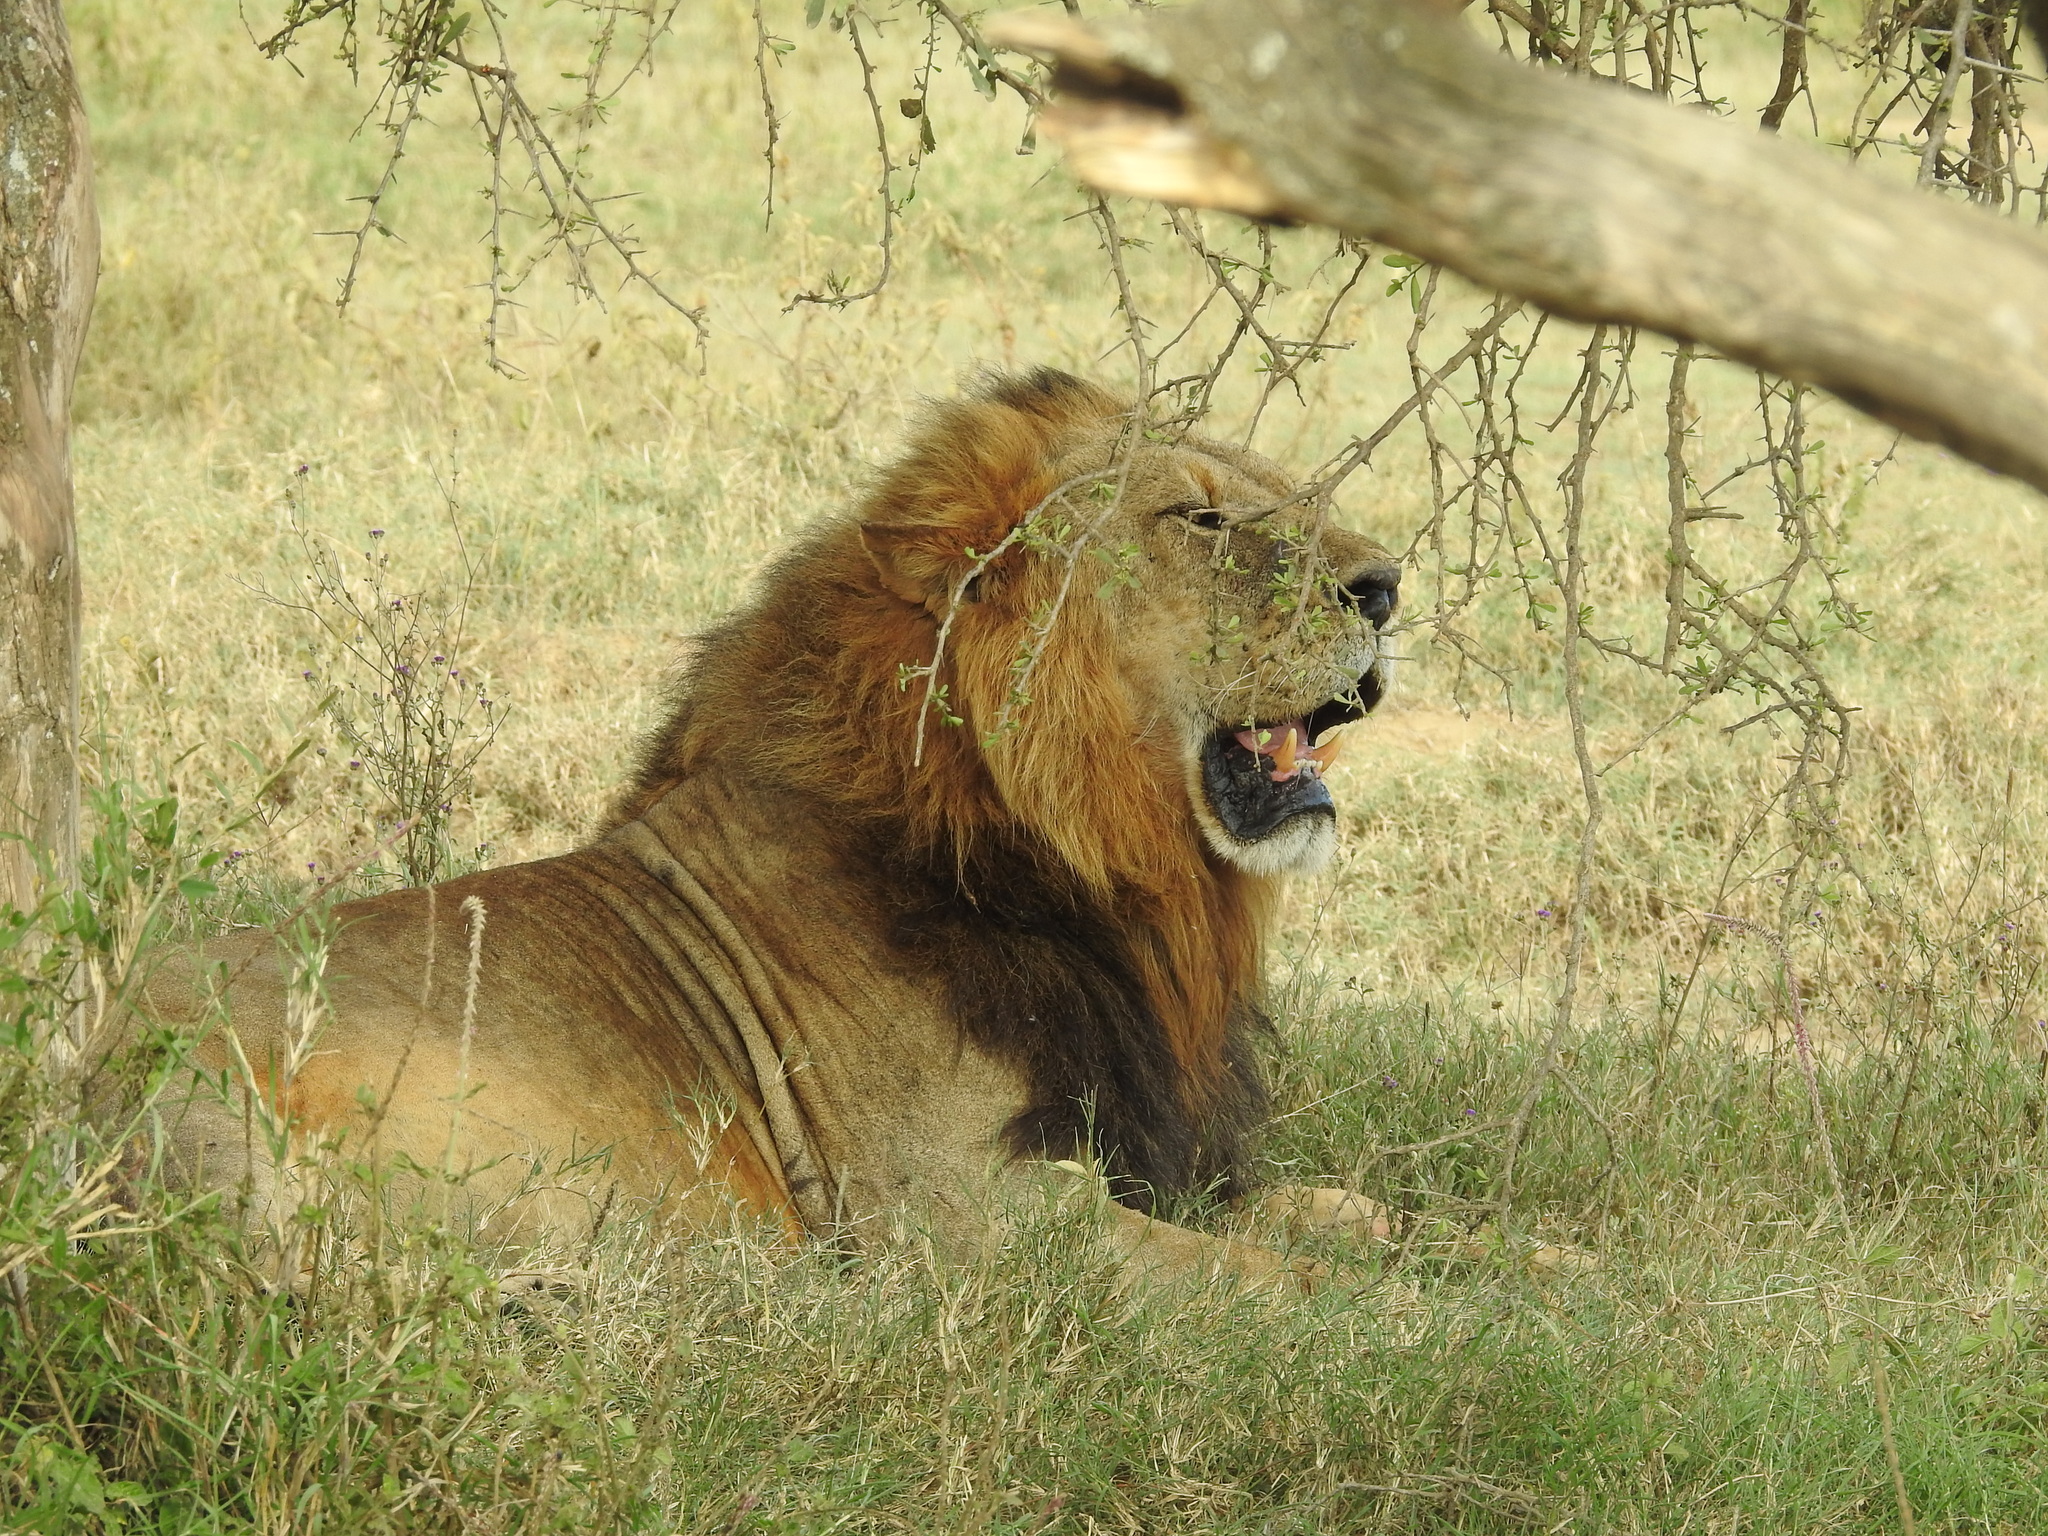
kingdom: Animalia
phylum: Chordata
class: Mammalia
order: Carnivora
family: Felidae
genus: Panthera
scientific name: Panthera leo
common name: Lion
